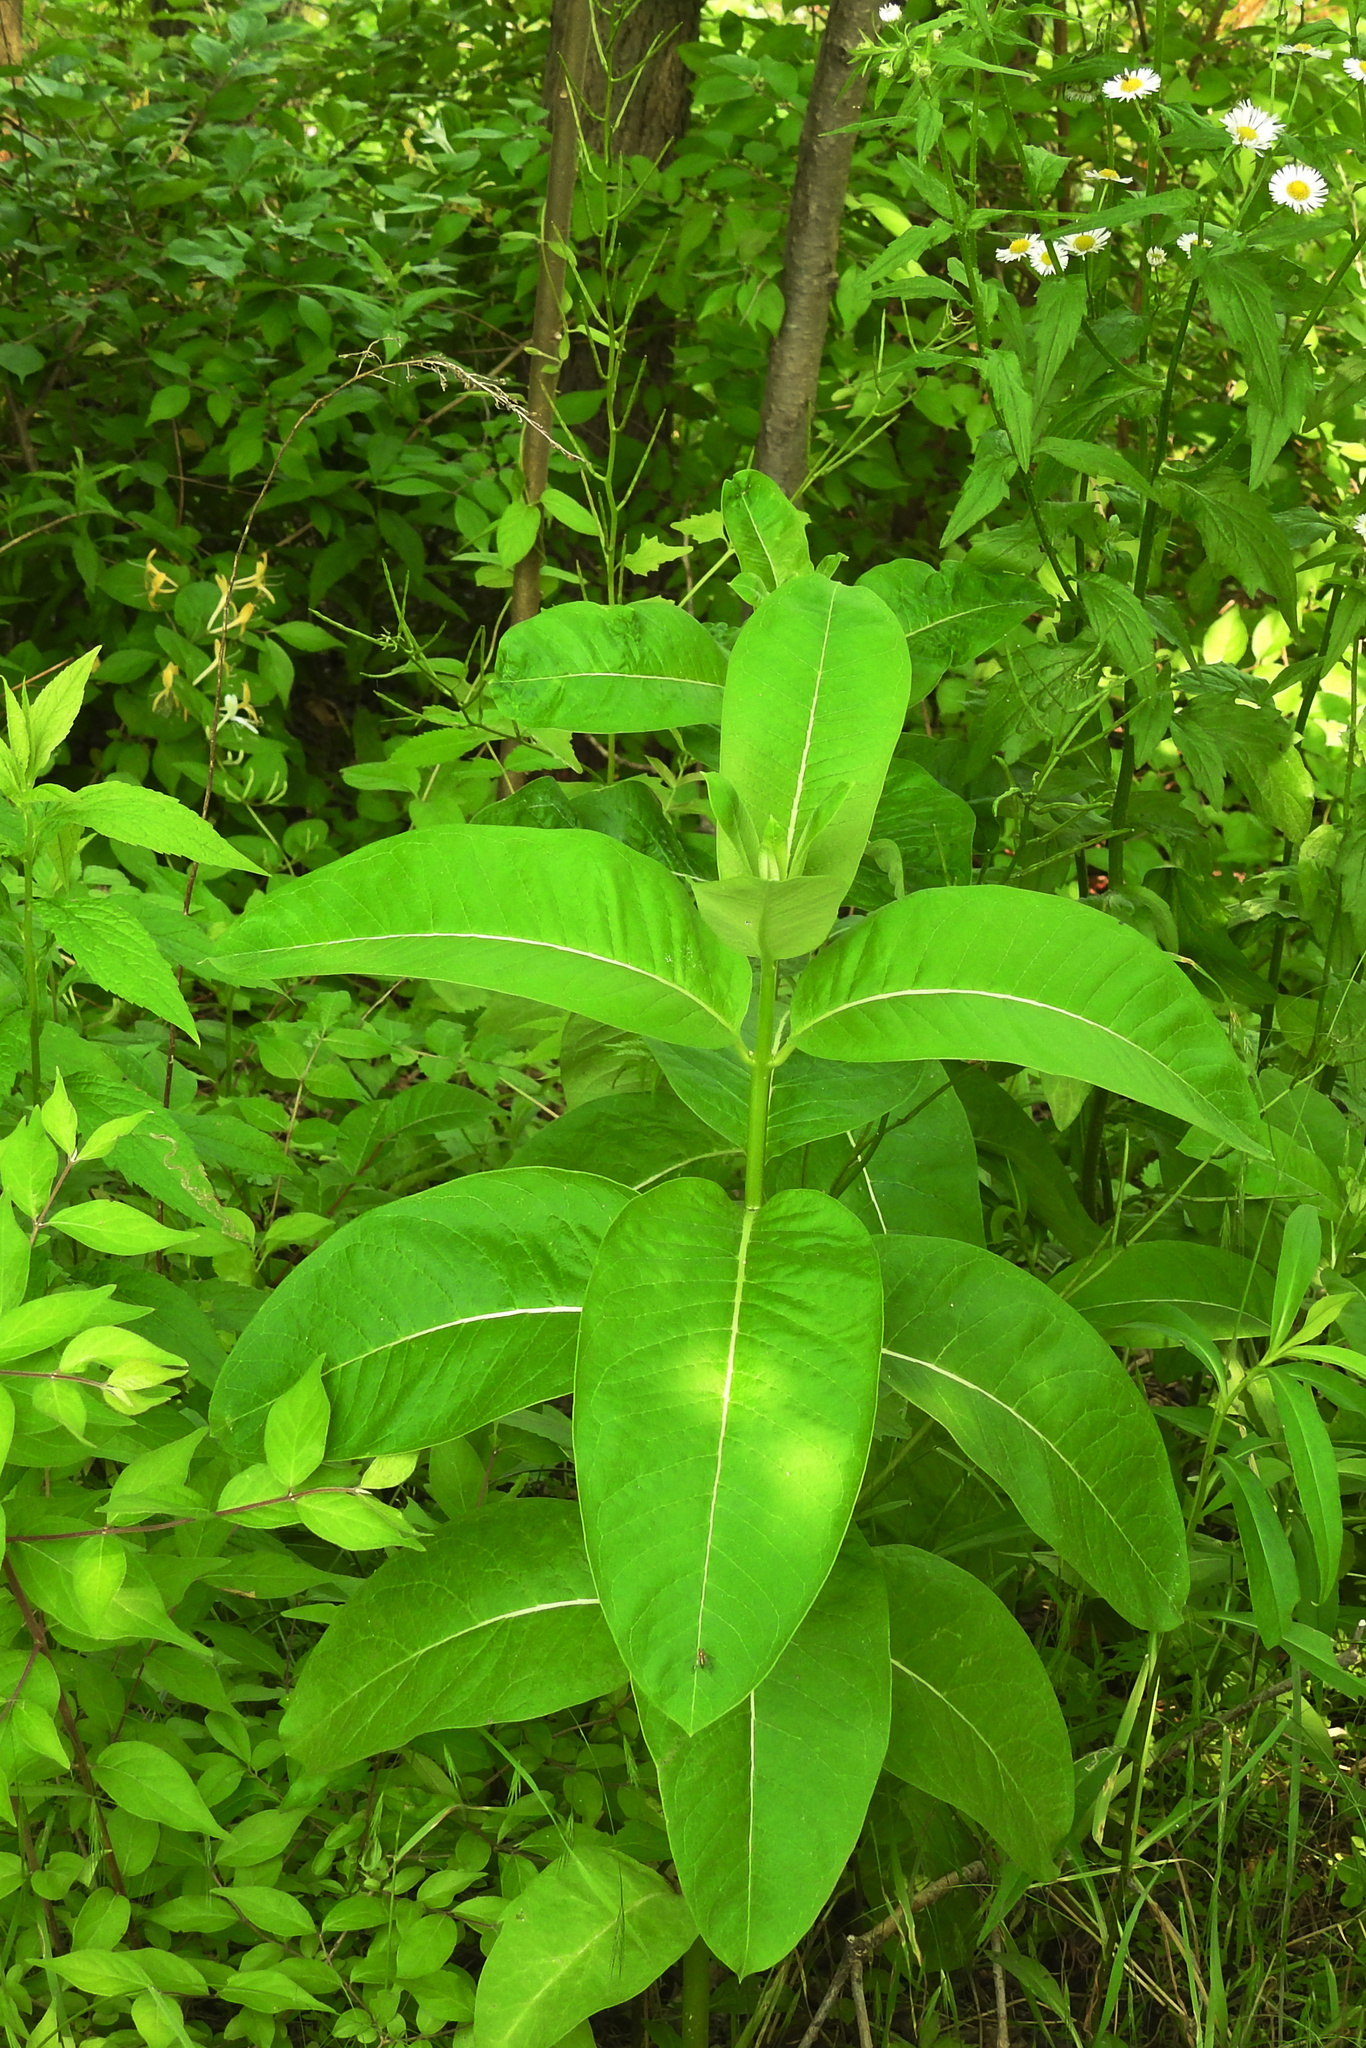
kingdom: Plantae
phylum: Tracheophyta
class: Magnoliopsida
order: Gentianales
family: Apocynaceae
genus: Asclepias
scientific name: Asclepias syriaca
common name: Common milkweed
